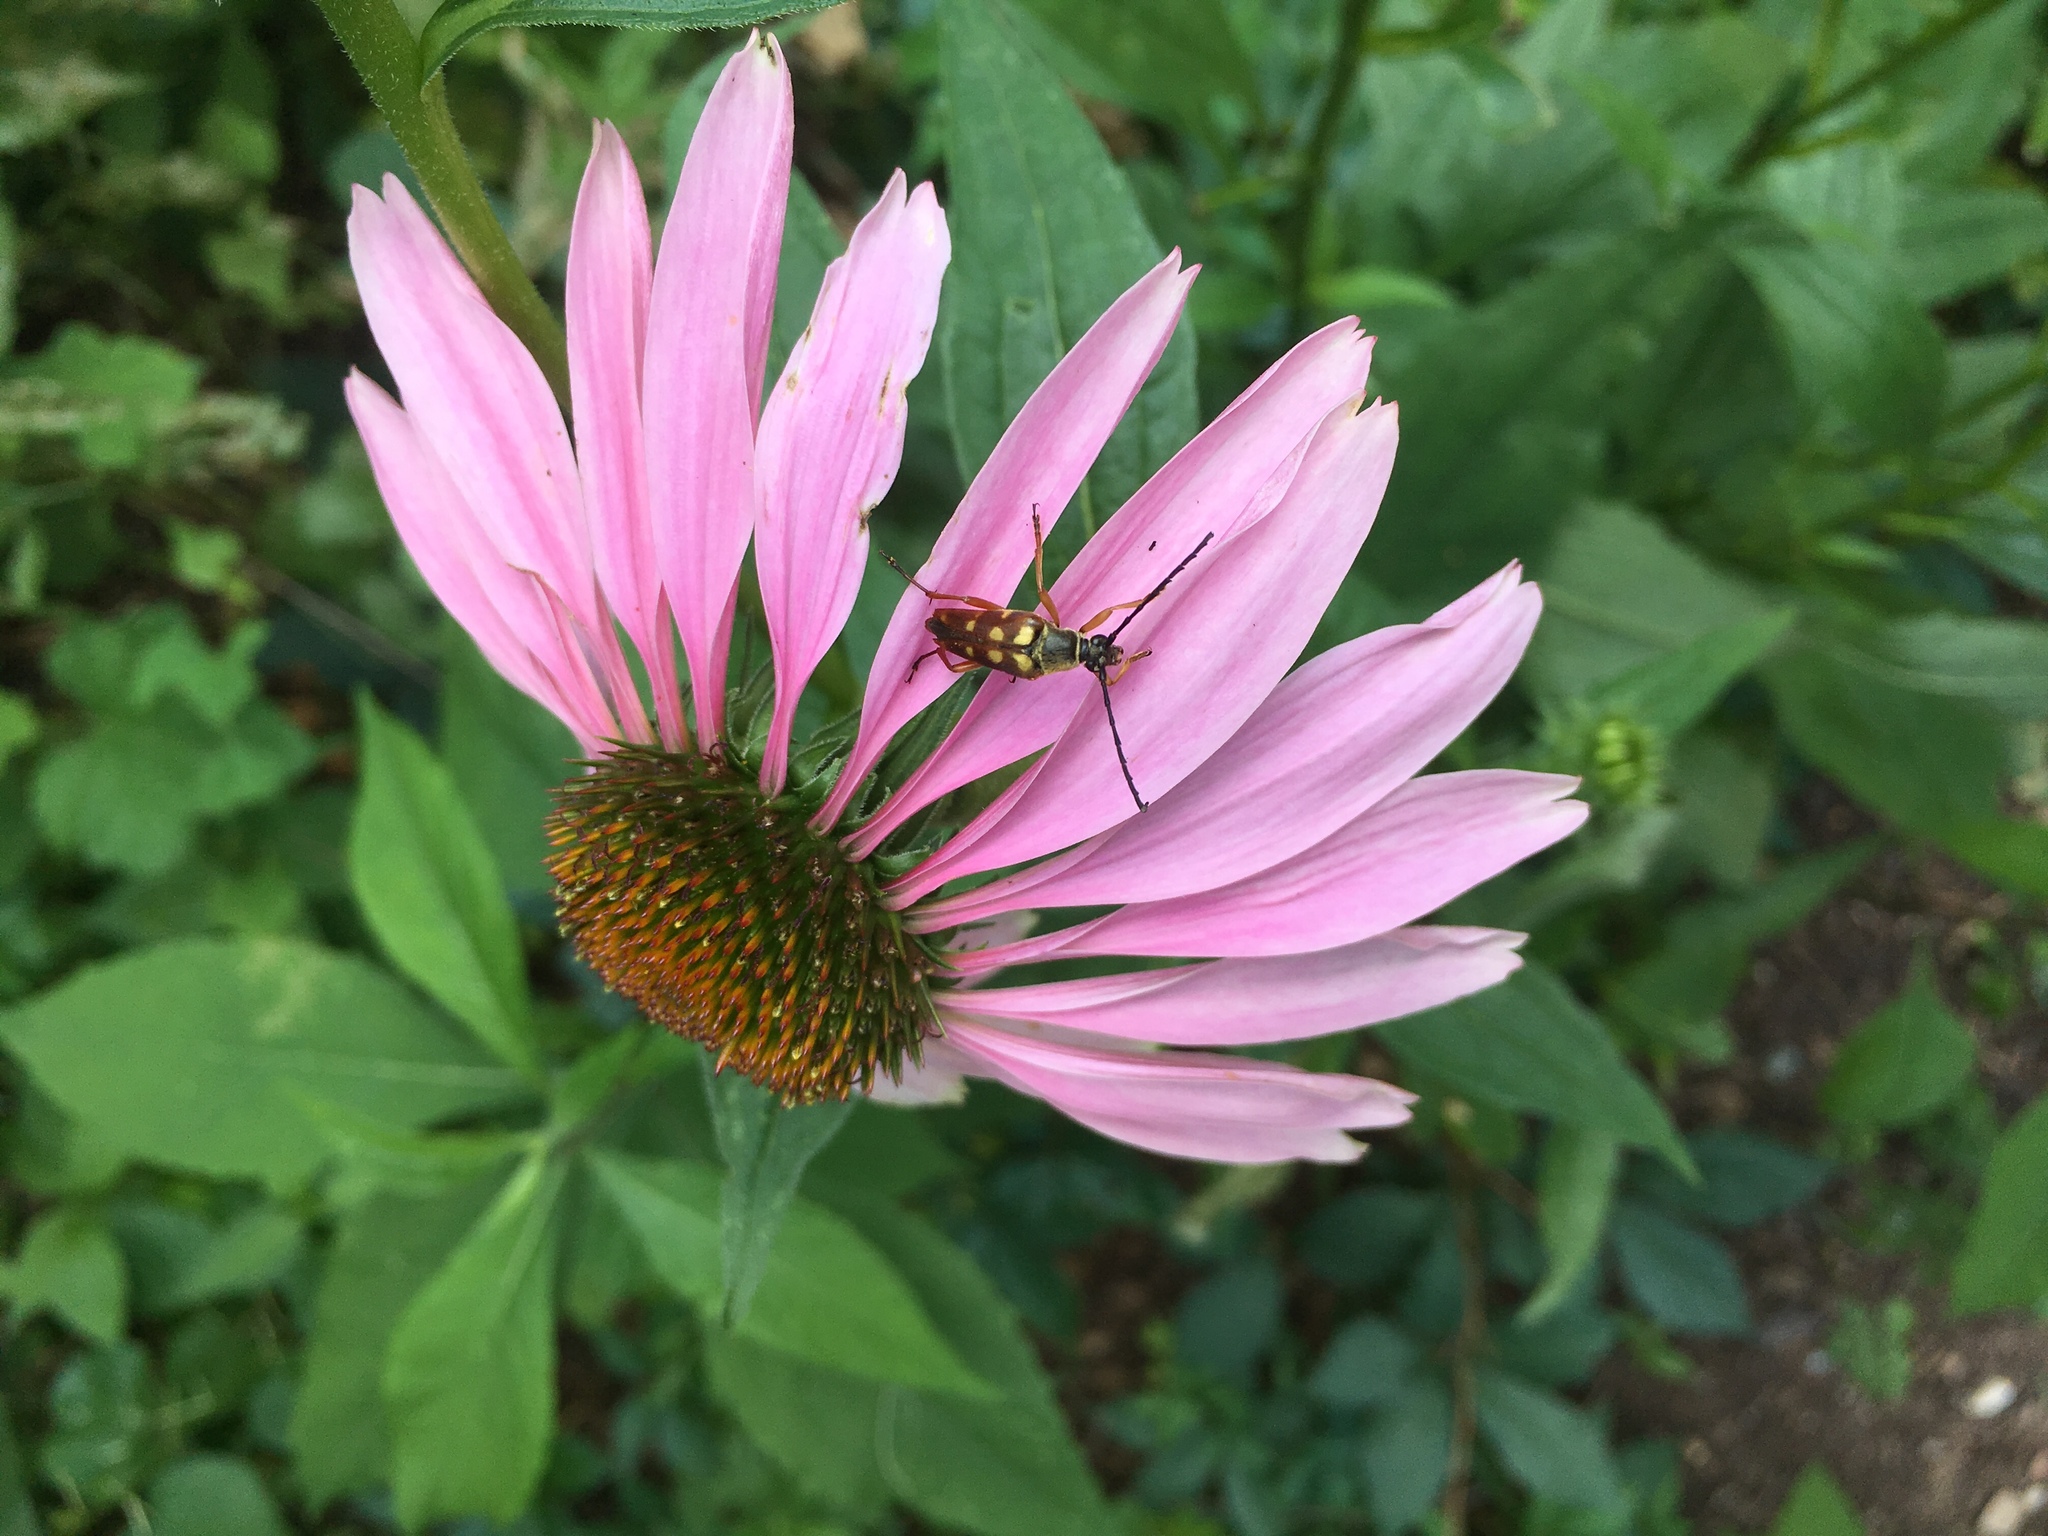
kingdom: Animalia
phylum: Arthropoda
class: Insecta
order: Coleoptera
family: Cerambycidae
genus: Typocerus
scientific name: Typocerus velutinus
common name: Banded longhorn beetle
